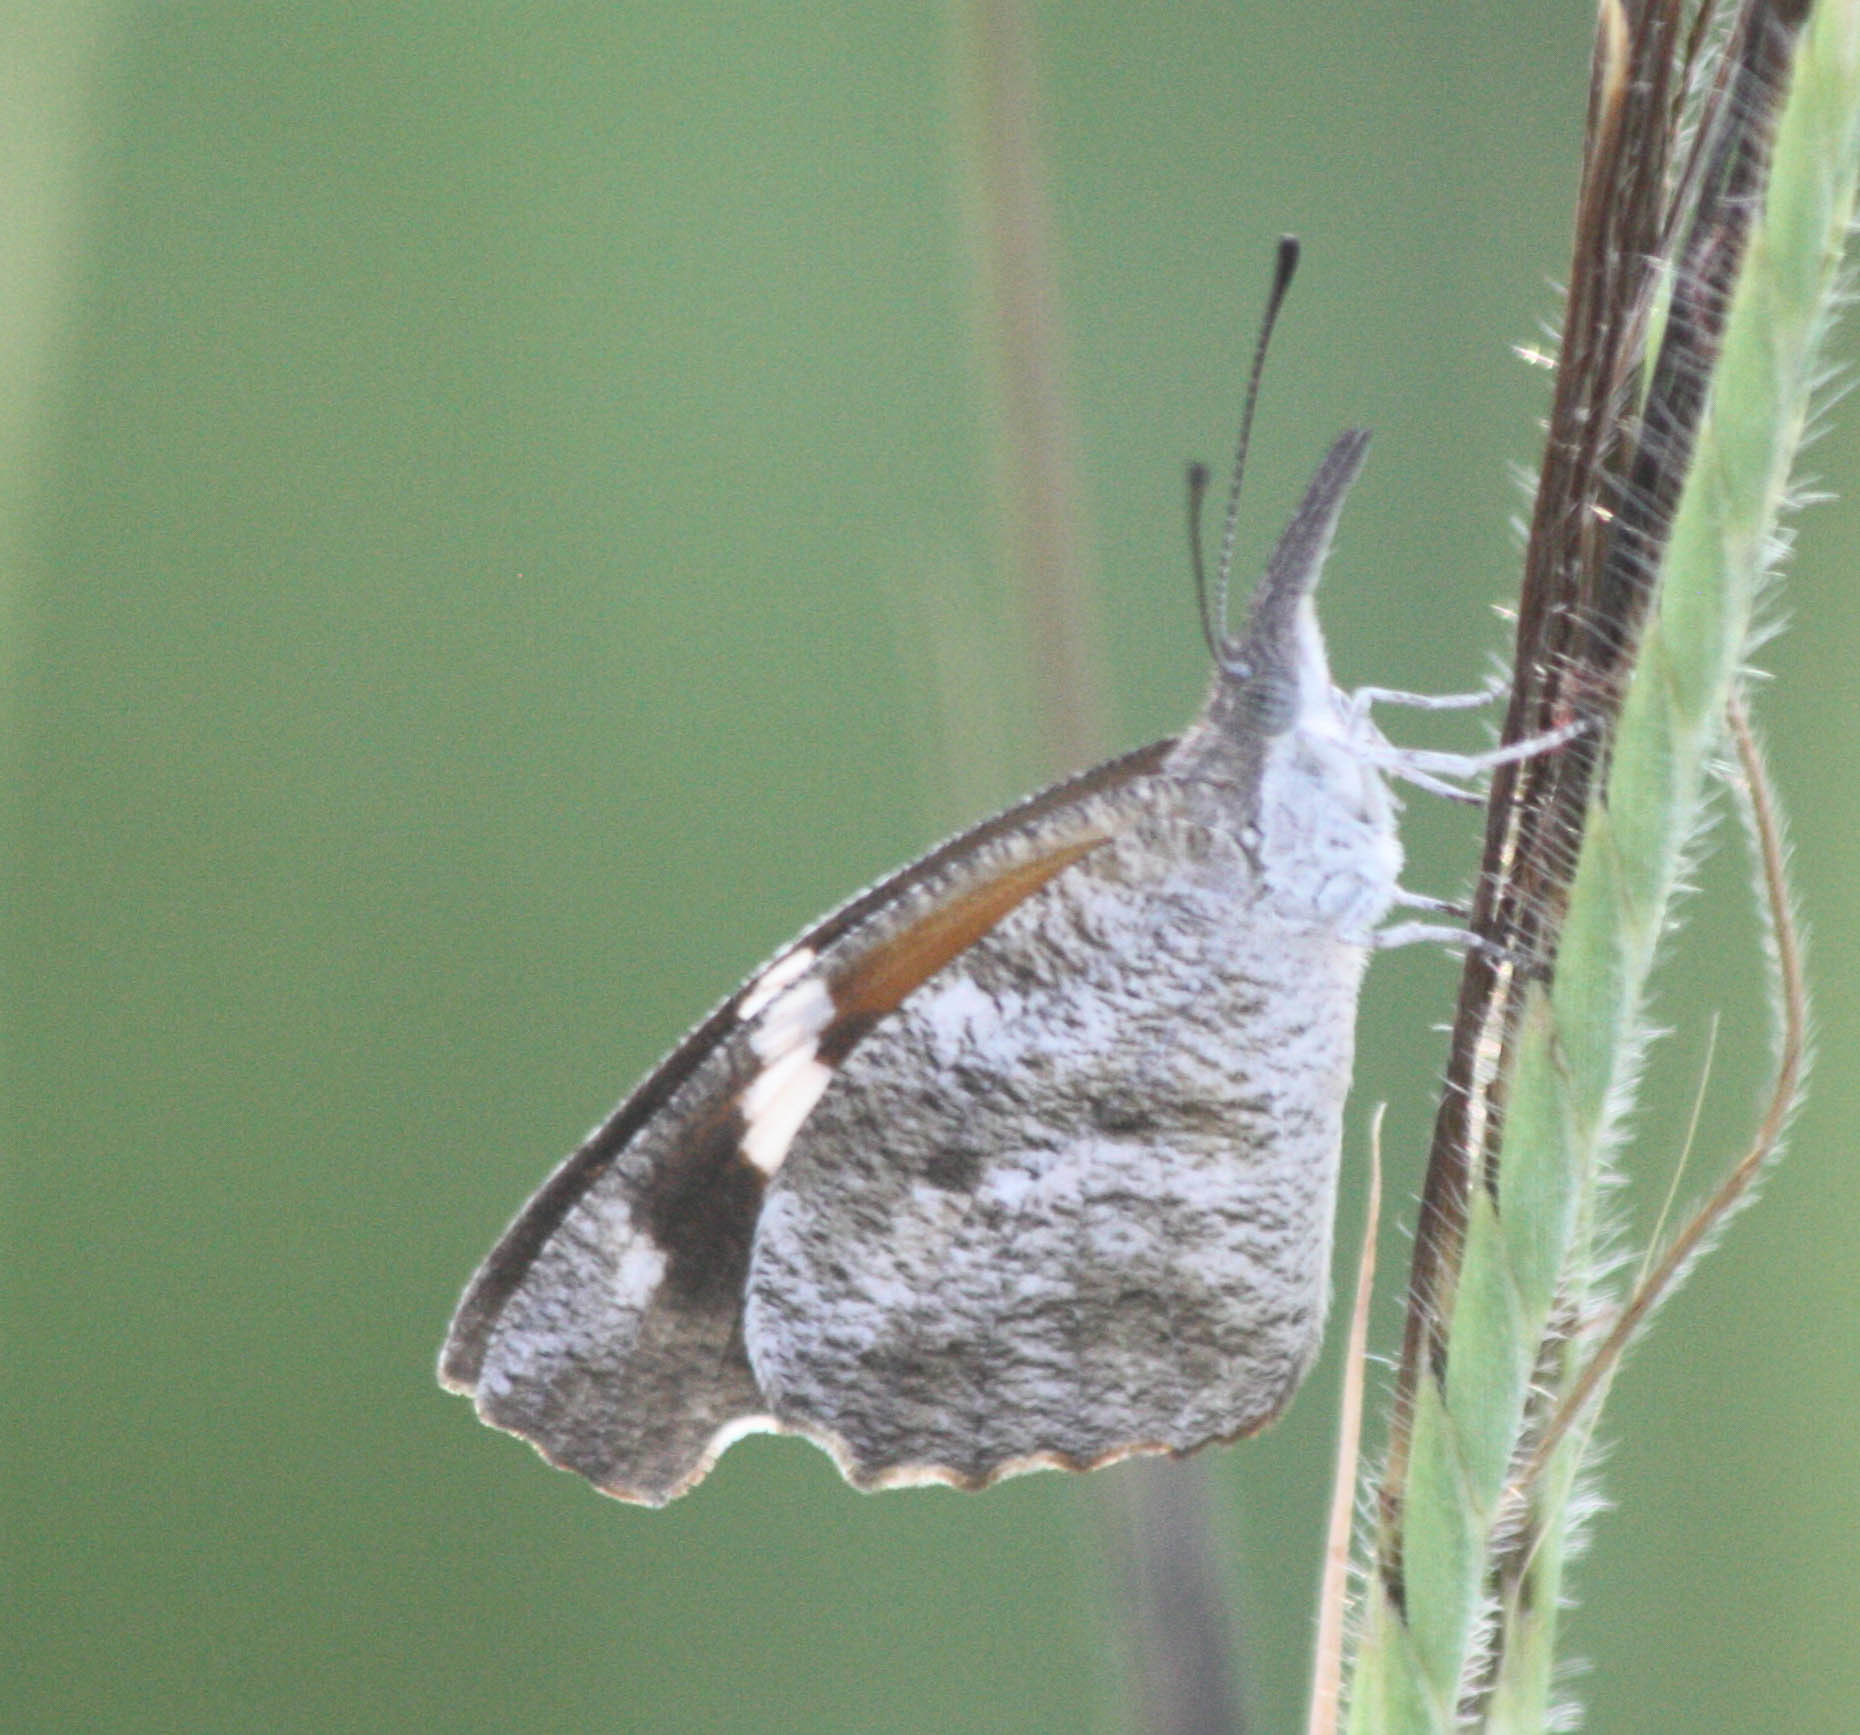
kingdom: Animalia
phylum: Arthropoda
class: Insecta
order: Lepidoptera
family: Nymphalidae
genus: Libytheana
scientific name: Libytheana carinenta
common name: American snout
